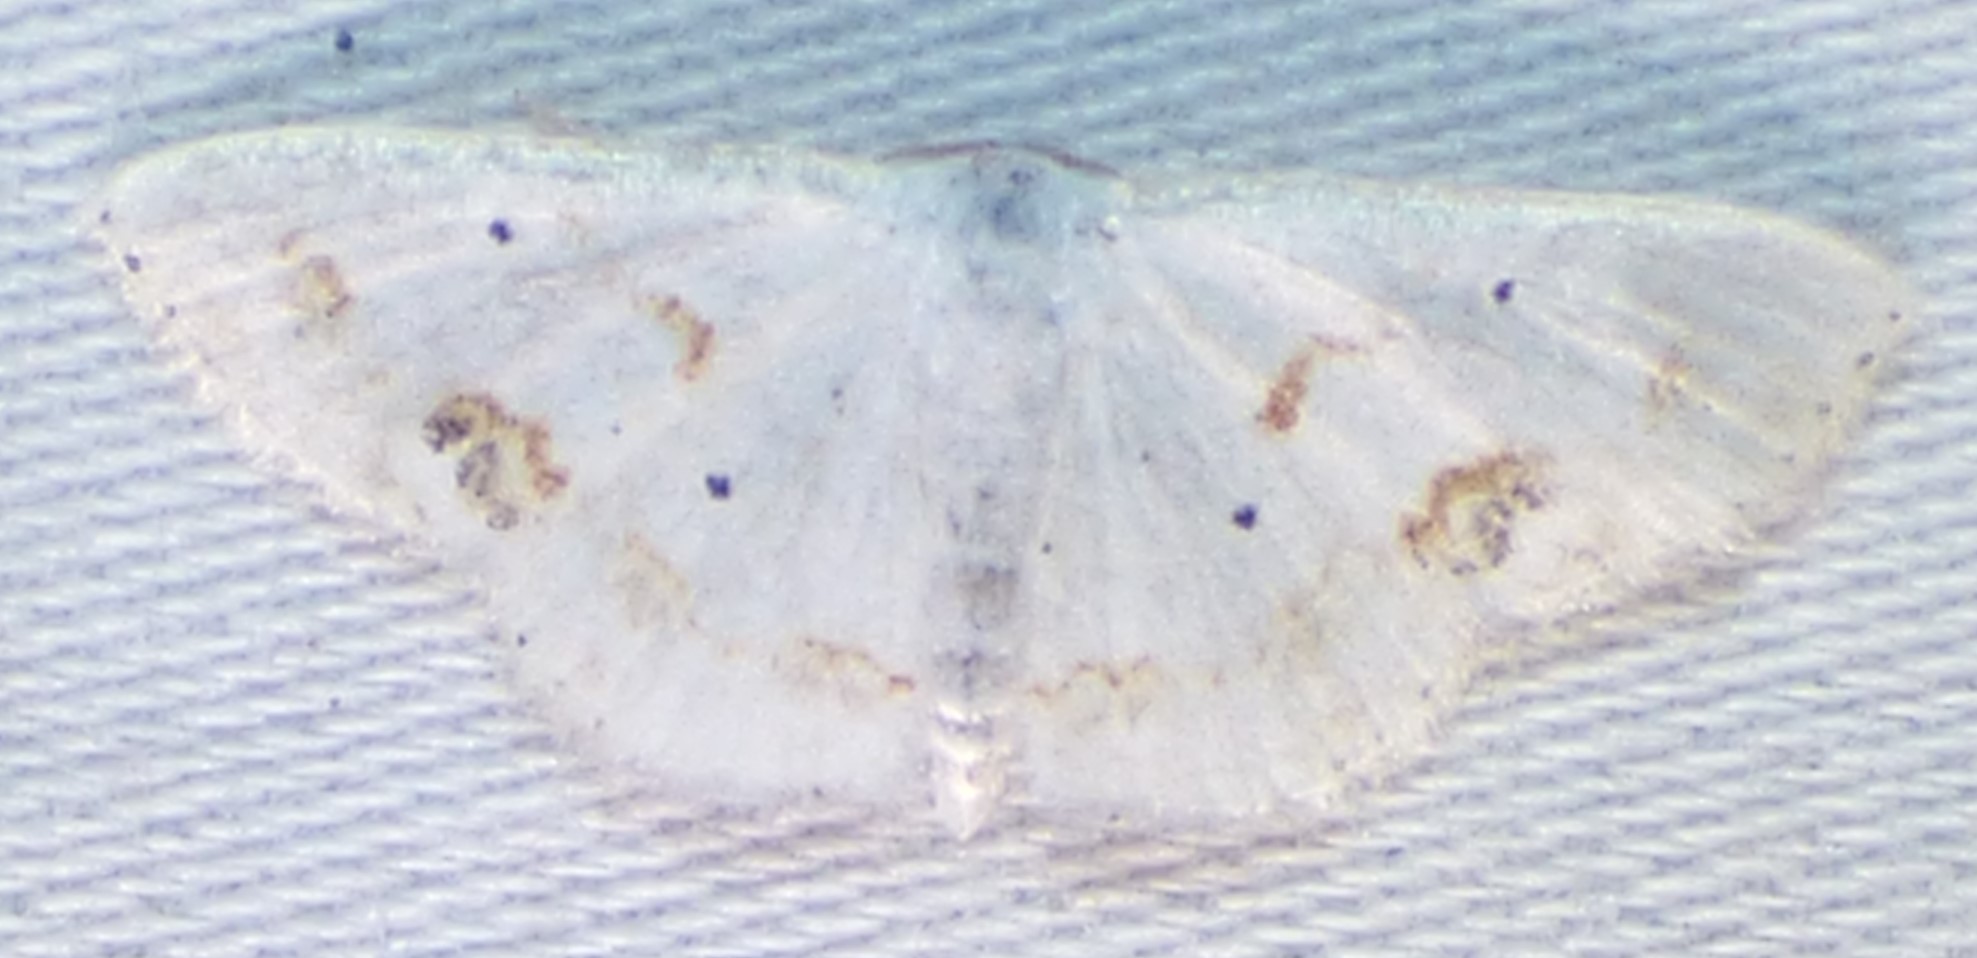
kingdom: Animalia
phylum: Arthropoda
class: Insecta
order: Lepidoptera
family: Geometridae
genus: Scopula
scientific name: Scopula lautaria
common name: Small frosted wave moth
